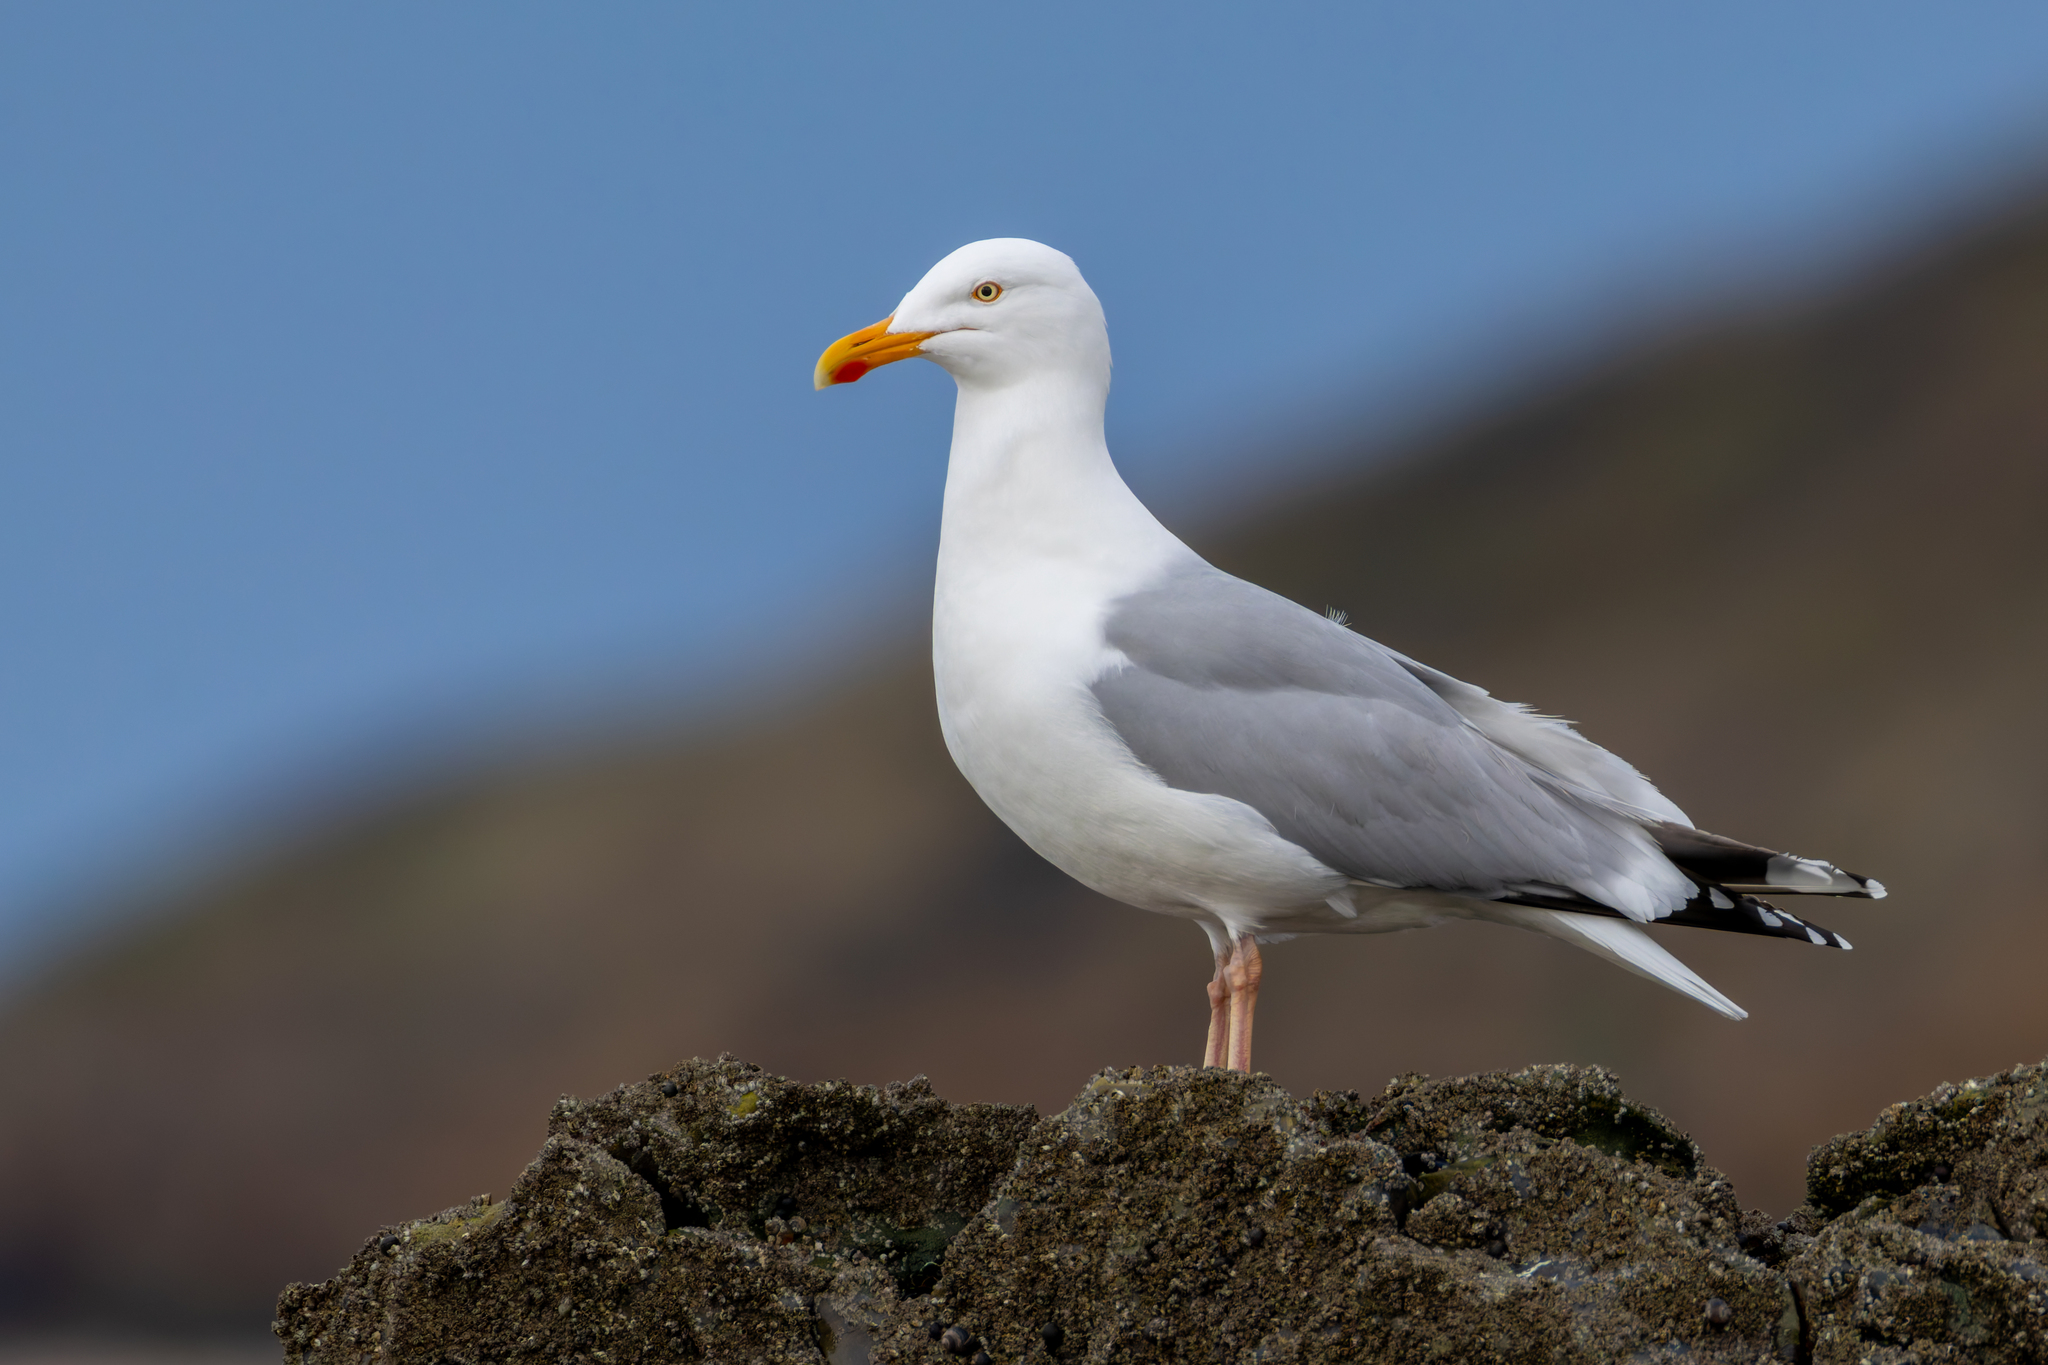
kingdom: Animalia
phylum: Chordata
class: Aves
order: Charadriiformes
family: Laridae
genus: Larus
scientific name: Larus argentatus
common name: Herring gull
